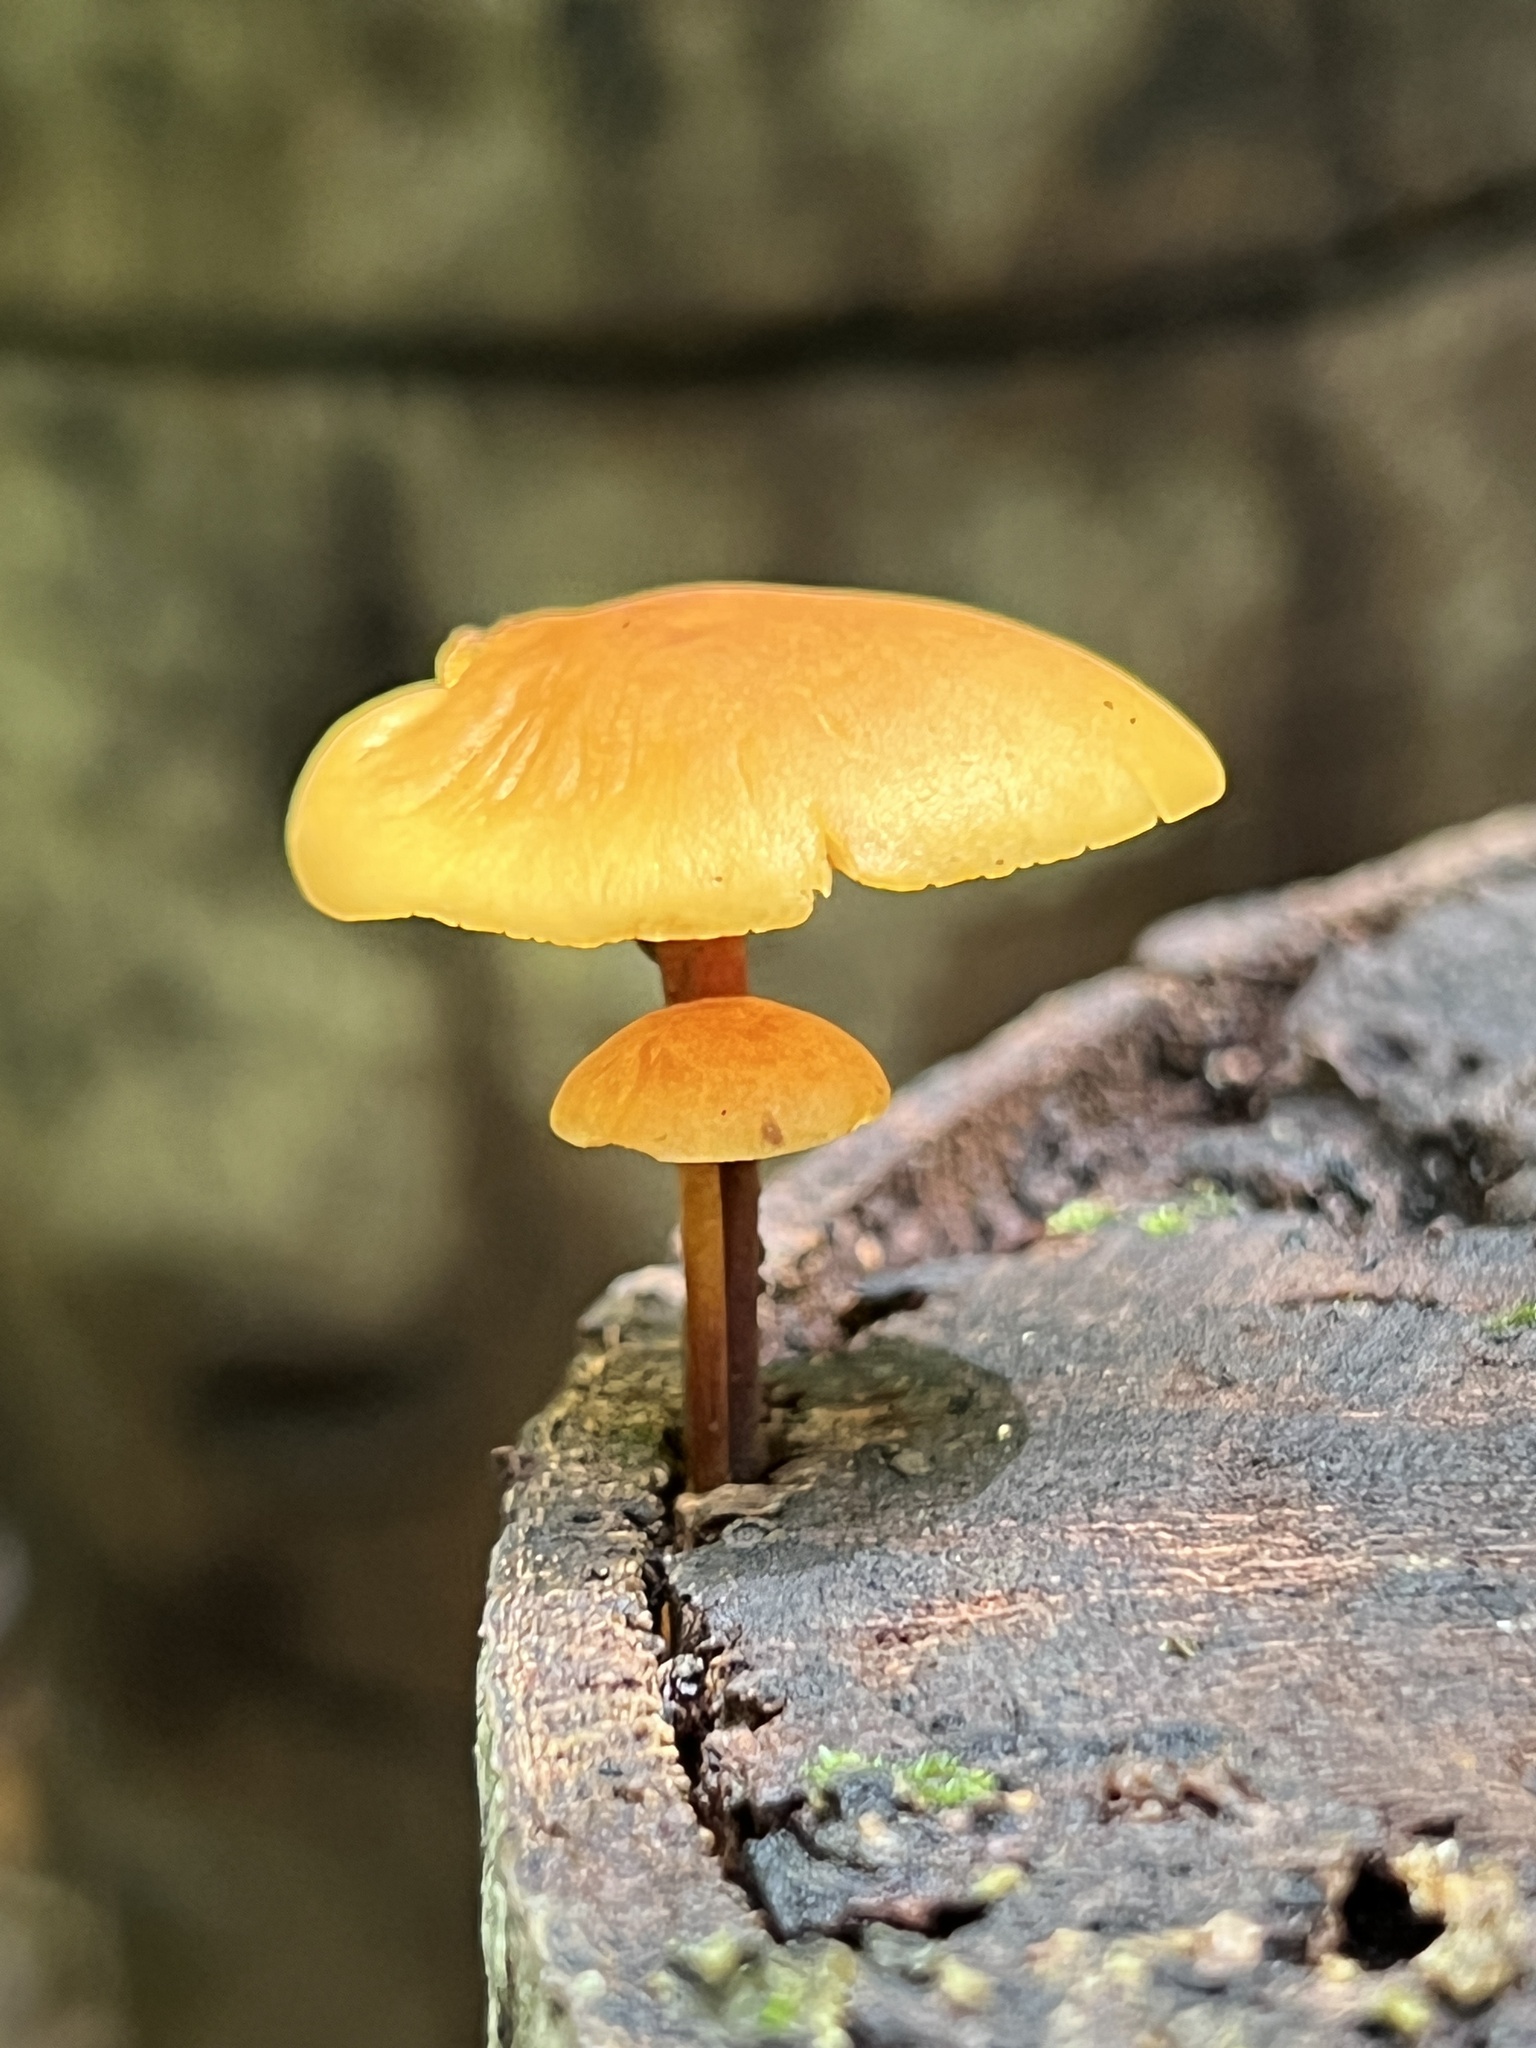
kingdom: Fungi
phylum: Basidiomycota
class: Agaricomycetes
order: Agaricales
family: Mycenaceae
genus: Xeromphalina
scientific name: Xeromphalina tenuipes
